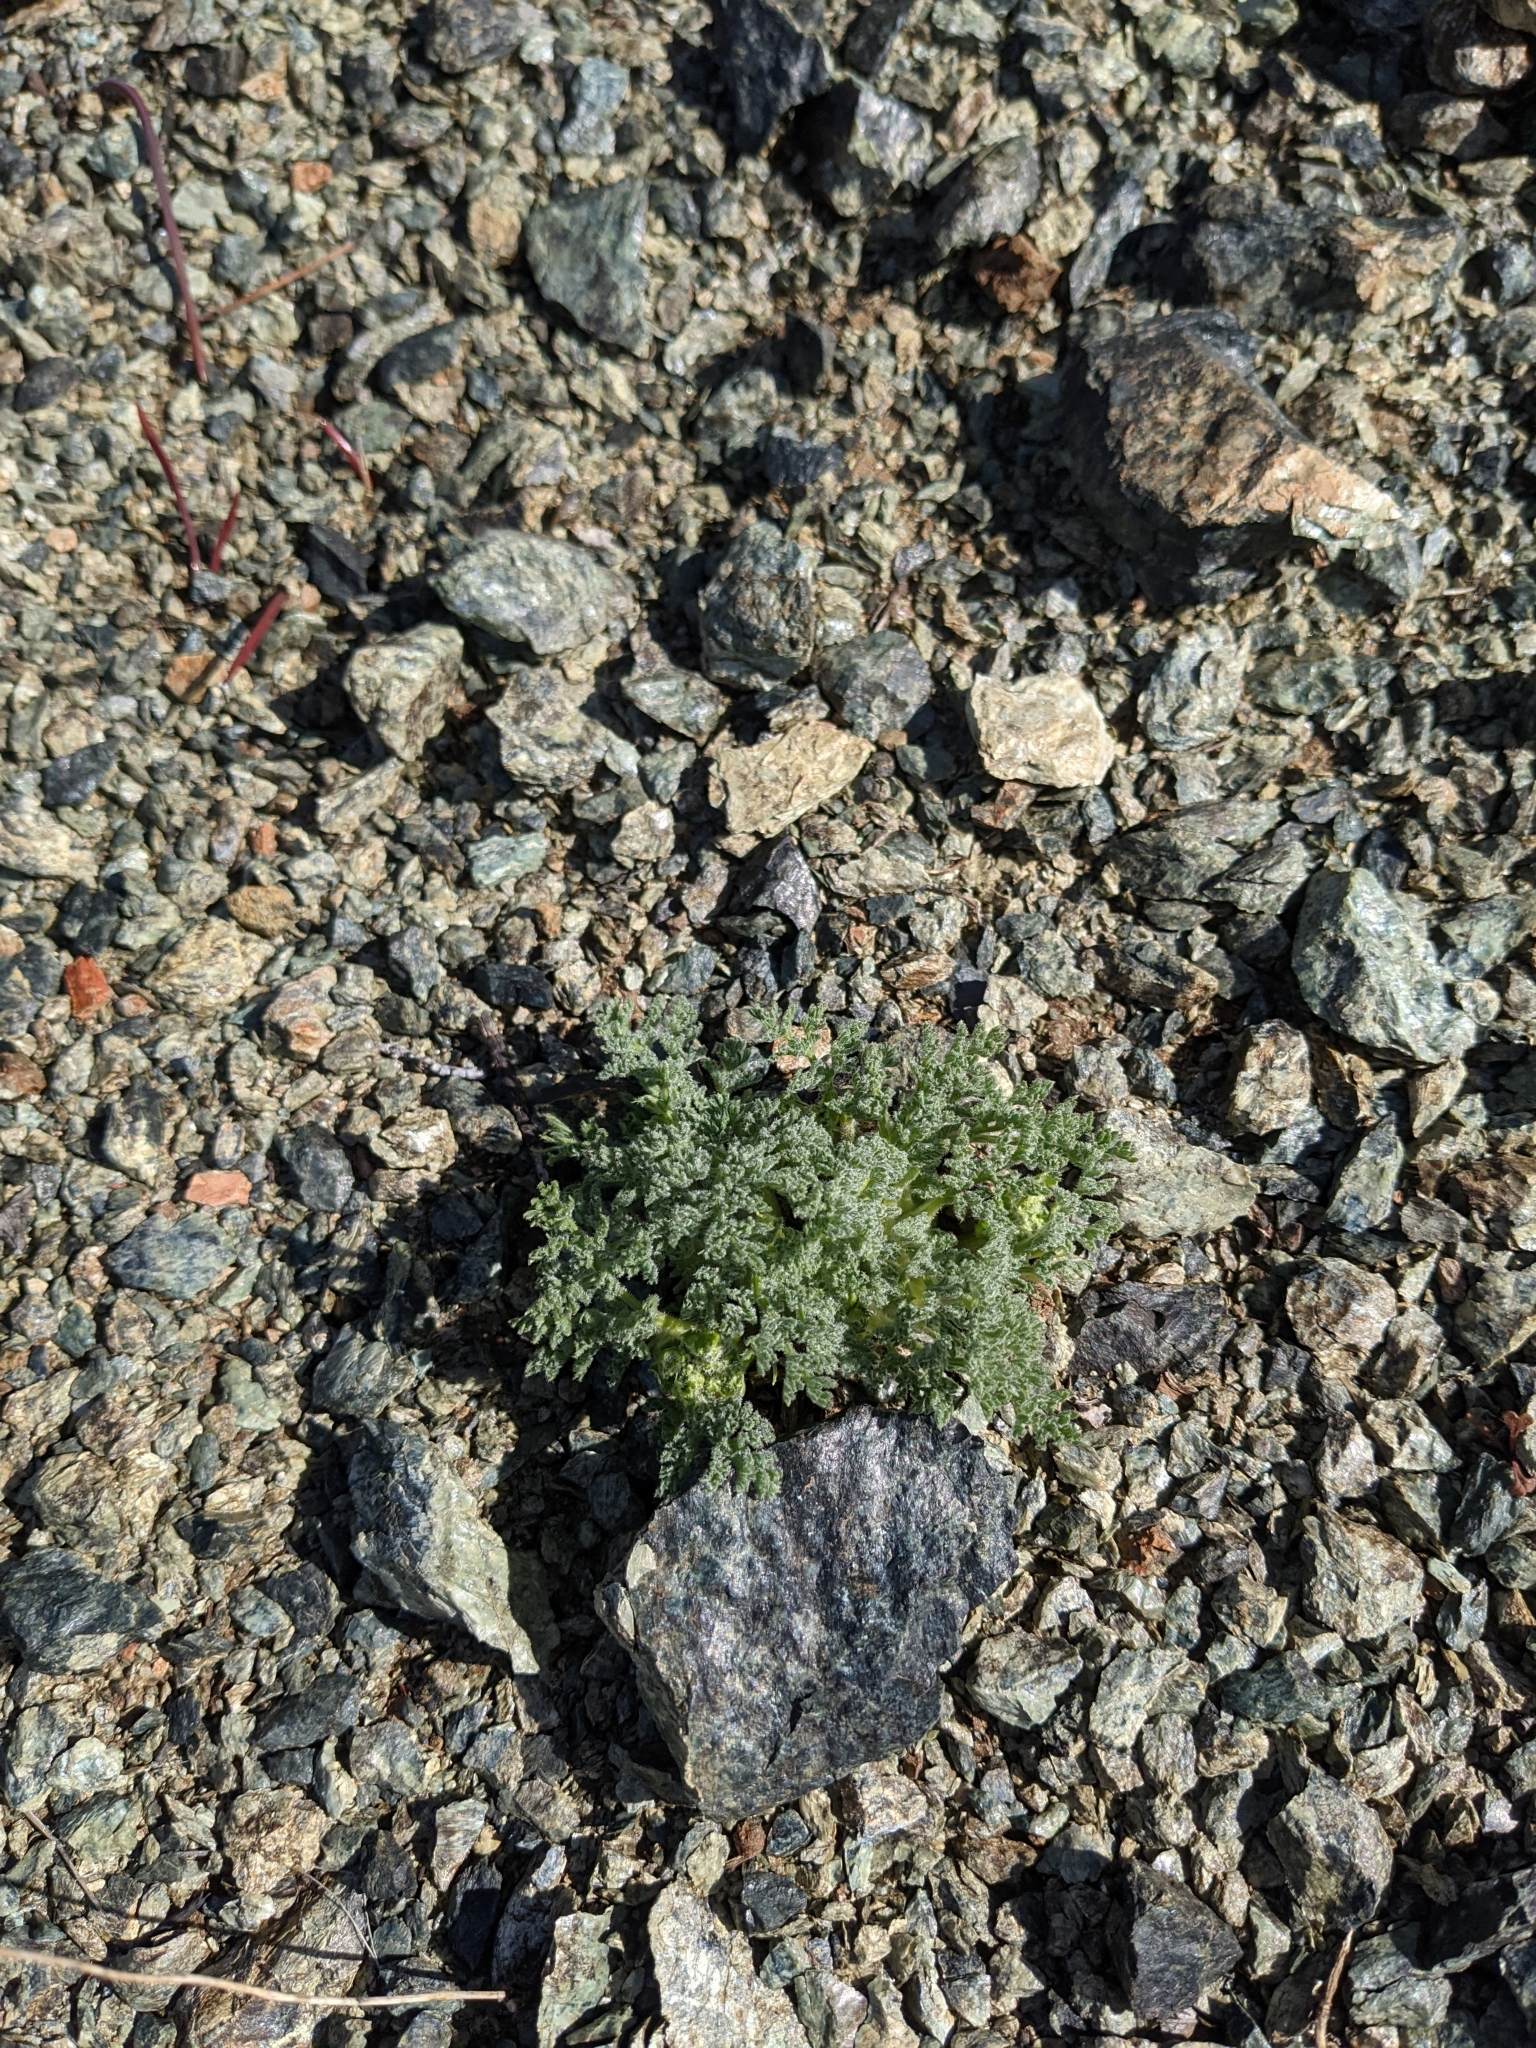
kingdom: Plantae
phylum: Tracheophyta
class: Magnoliopsida
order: Apiales
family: Apiaceae
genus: Lomatium
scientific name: Lomatium dasycarpum
